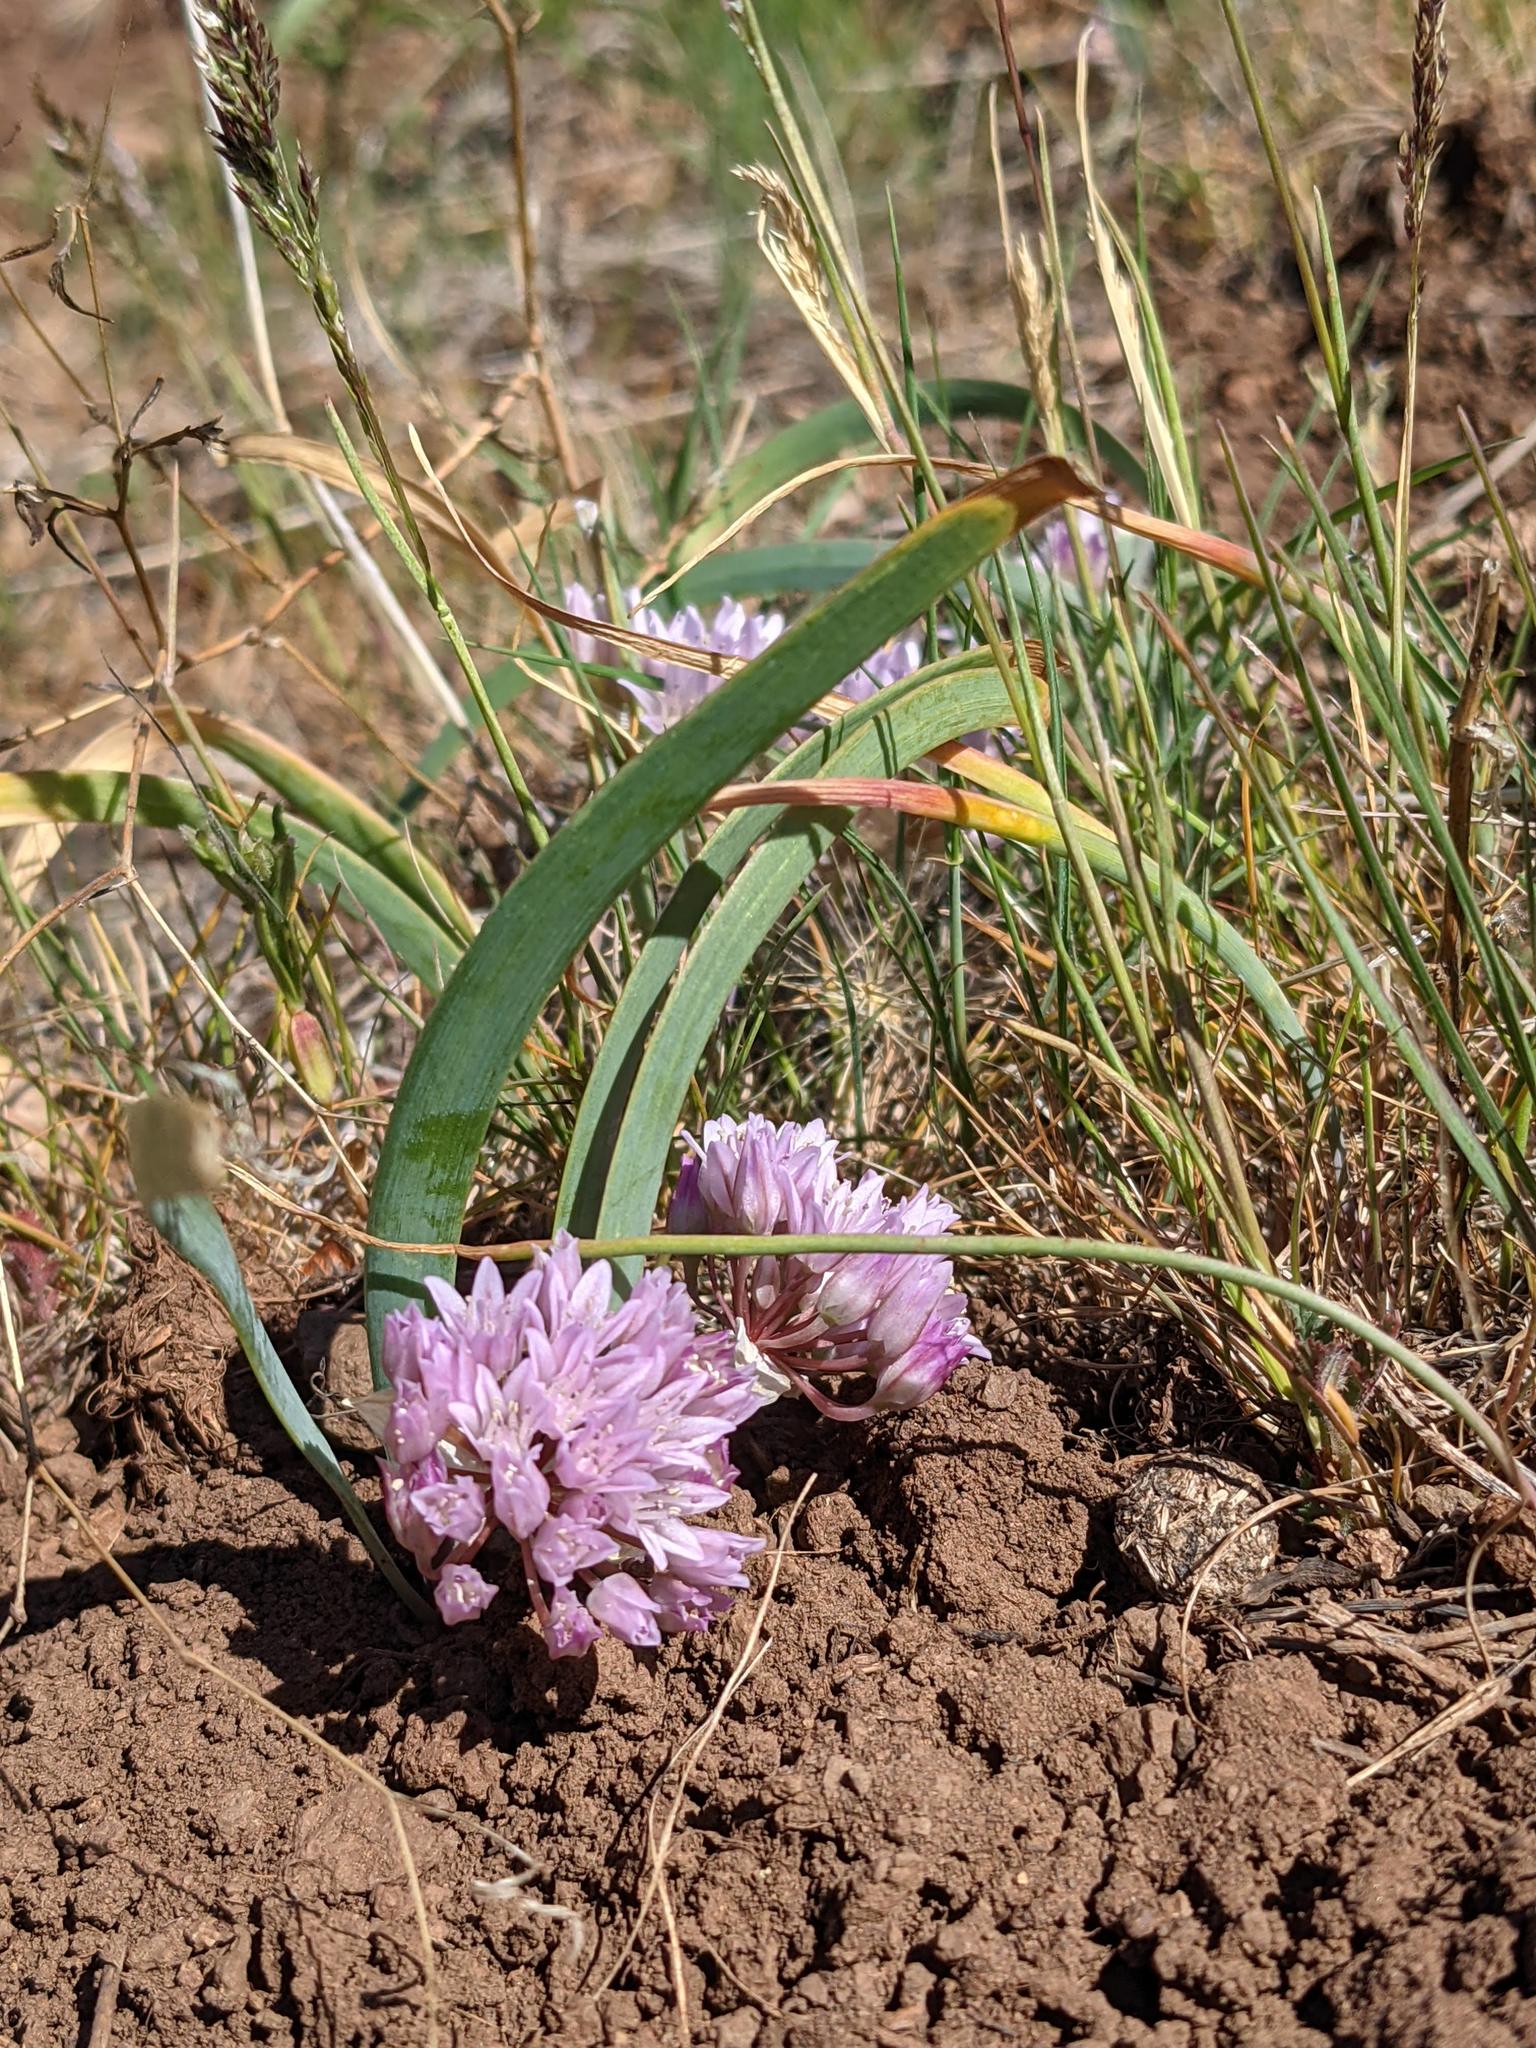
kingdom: Plantae
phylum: Tracheophyta
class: Liliopsida
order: Asparagales
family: Amaryllidaceae
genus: Allium
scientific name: Allium siskiyouense
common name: Siskiyou onion
